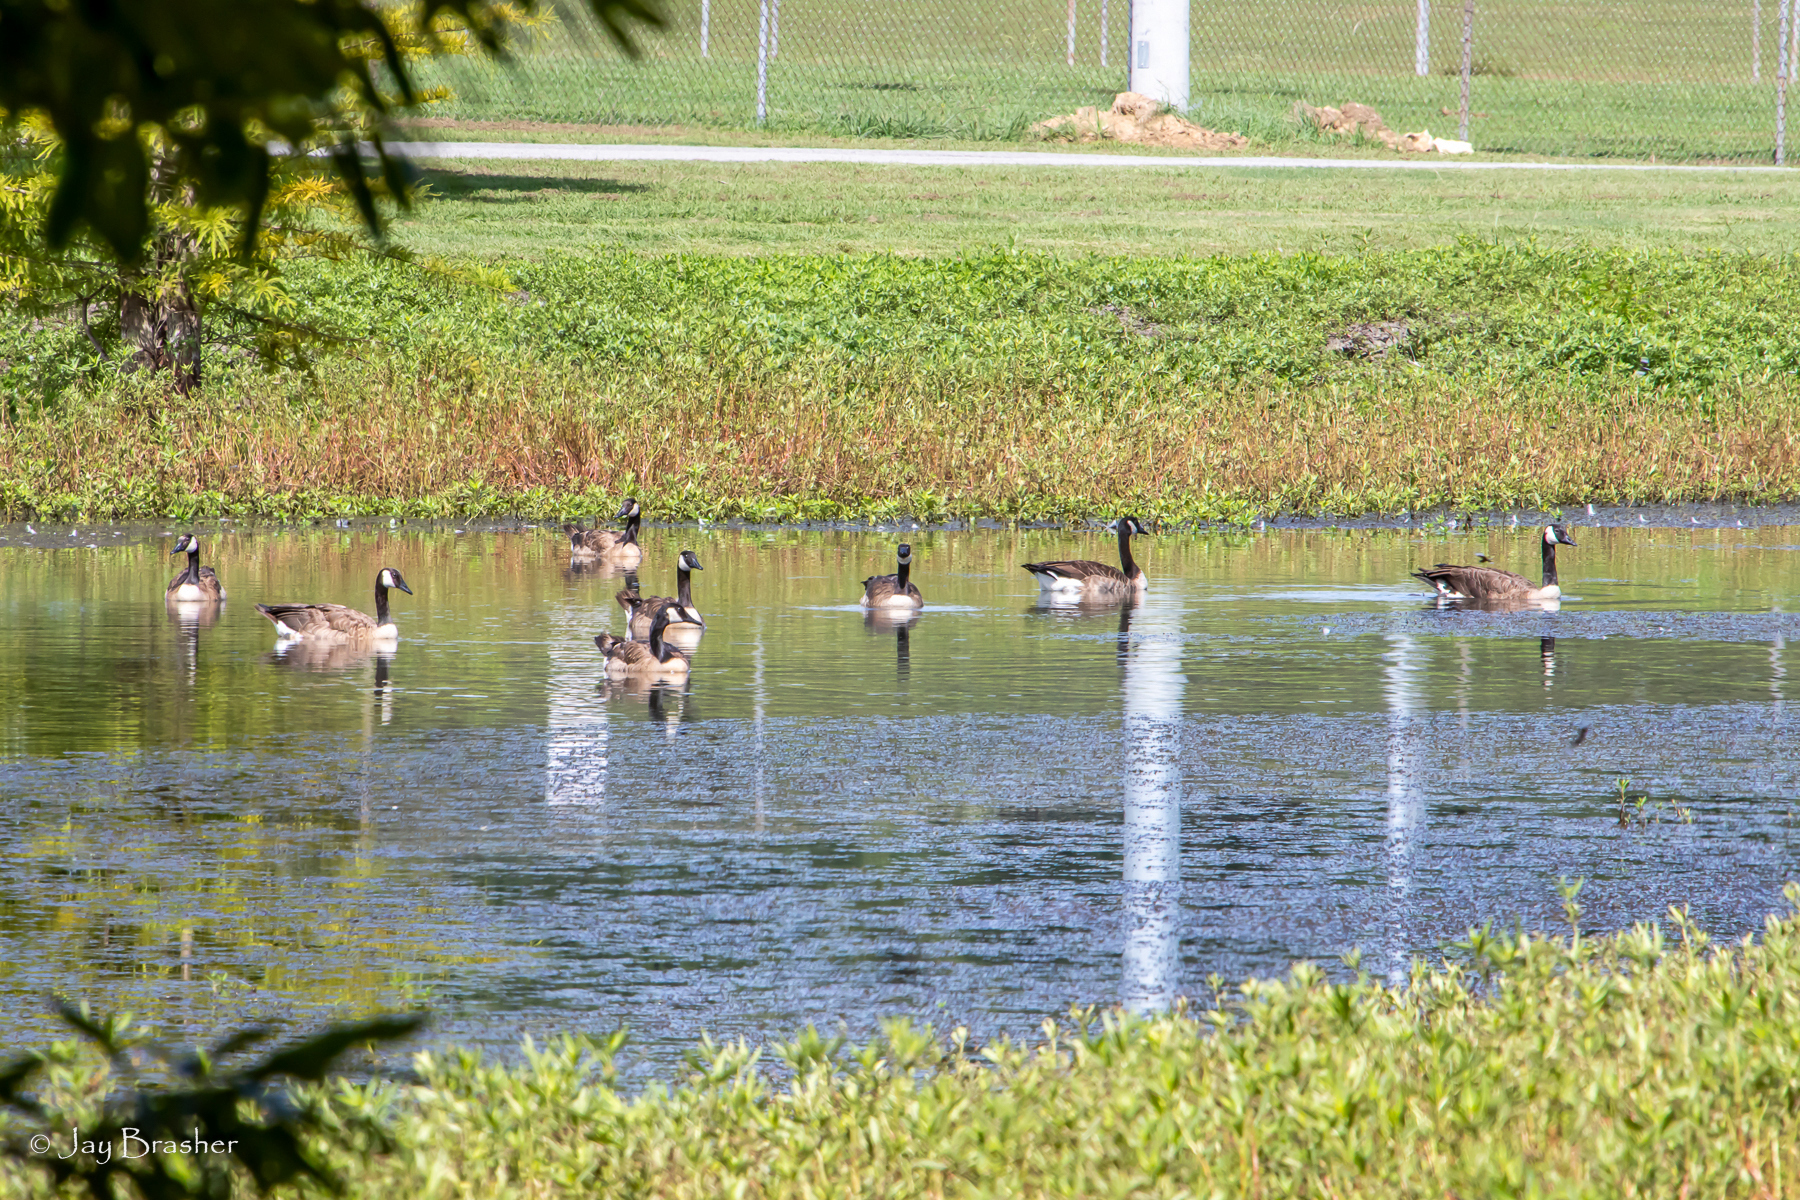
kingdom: Animalia
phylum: Chordata
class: Aves
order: Anseriformes
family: Anatidae
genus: Branta
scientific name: Branta canadensis
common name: Canada goose
